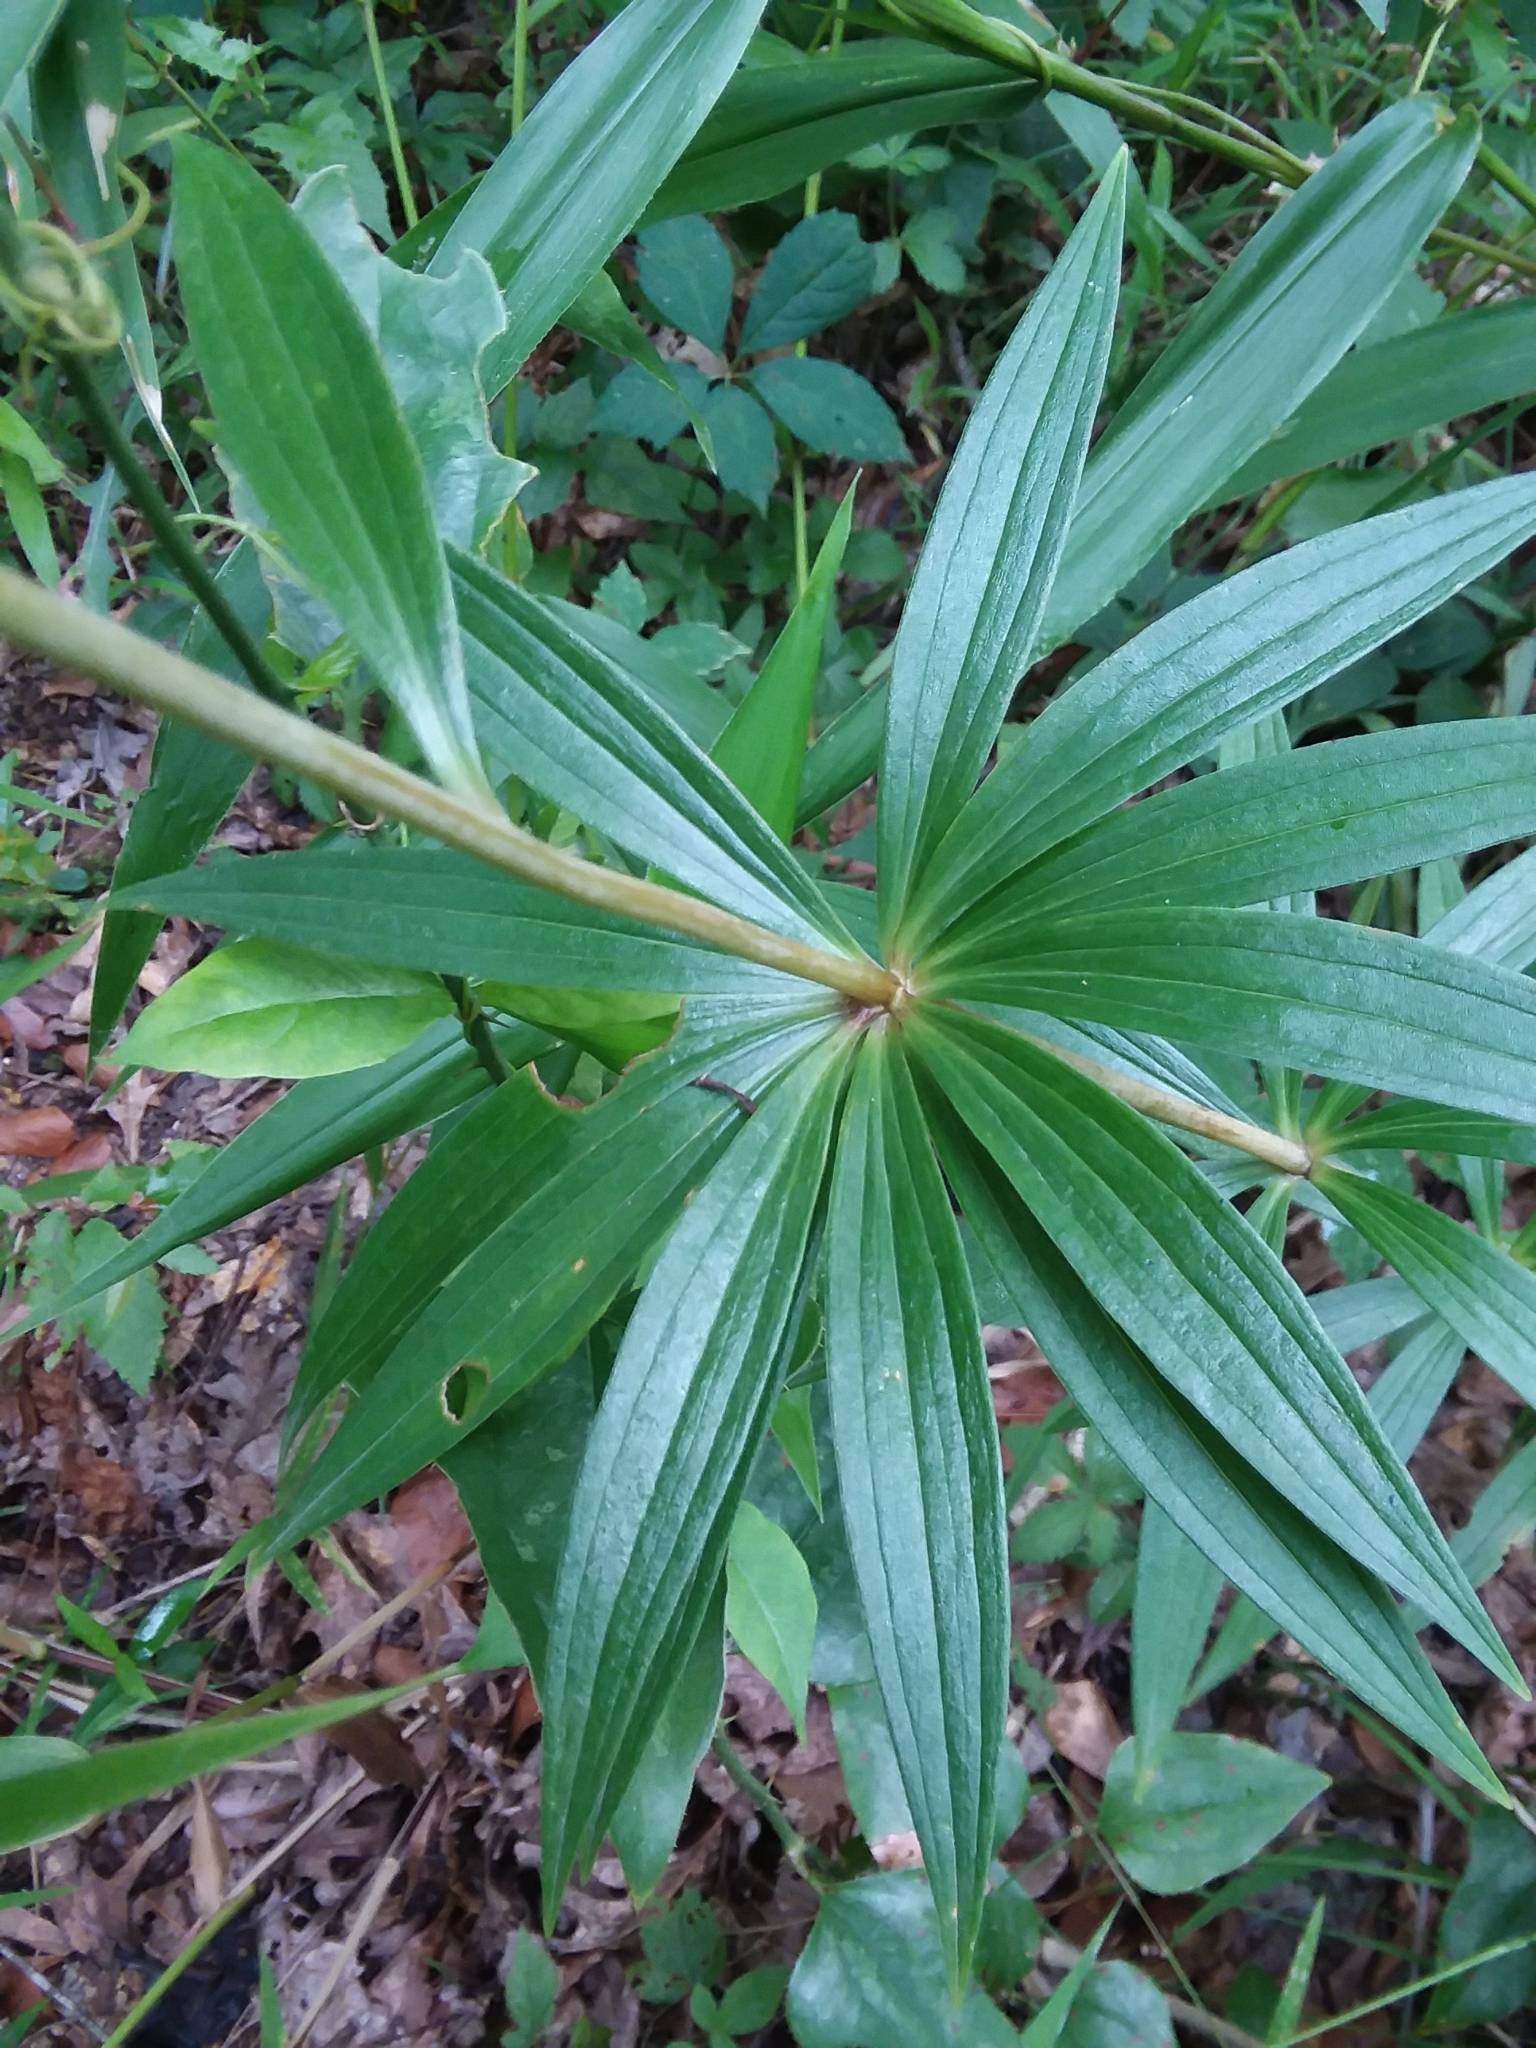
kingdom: Plantae
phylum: Tracheophyta
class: Liliopsida
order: Liliales
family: Liliaceae
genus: Lilium
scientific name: Lilium superbum
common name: American turk's-cap lily
